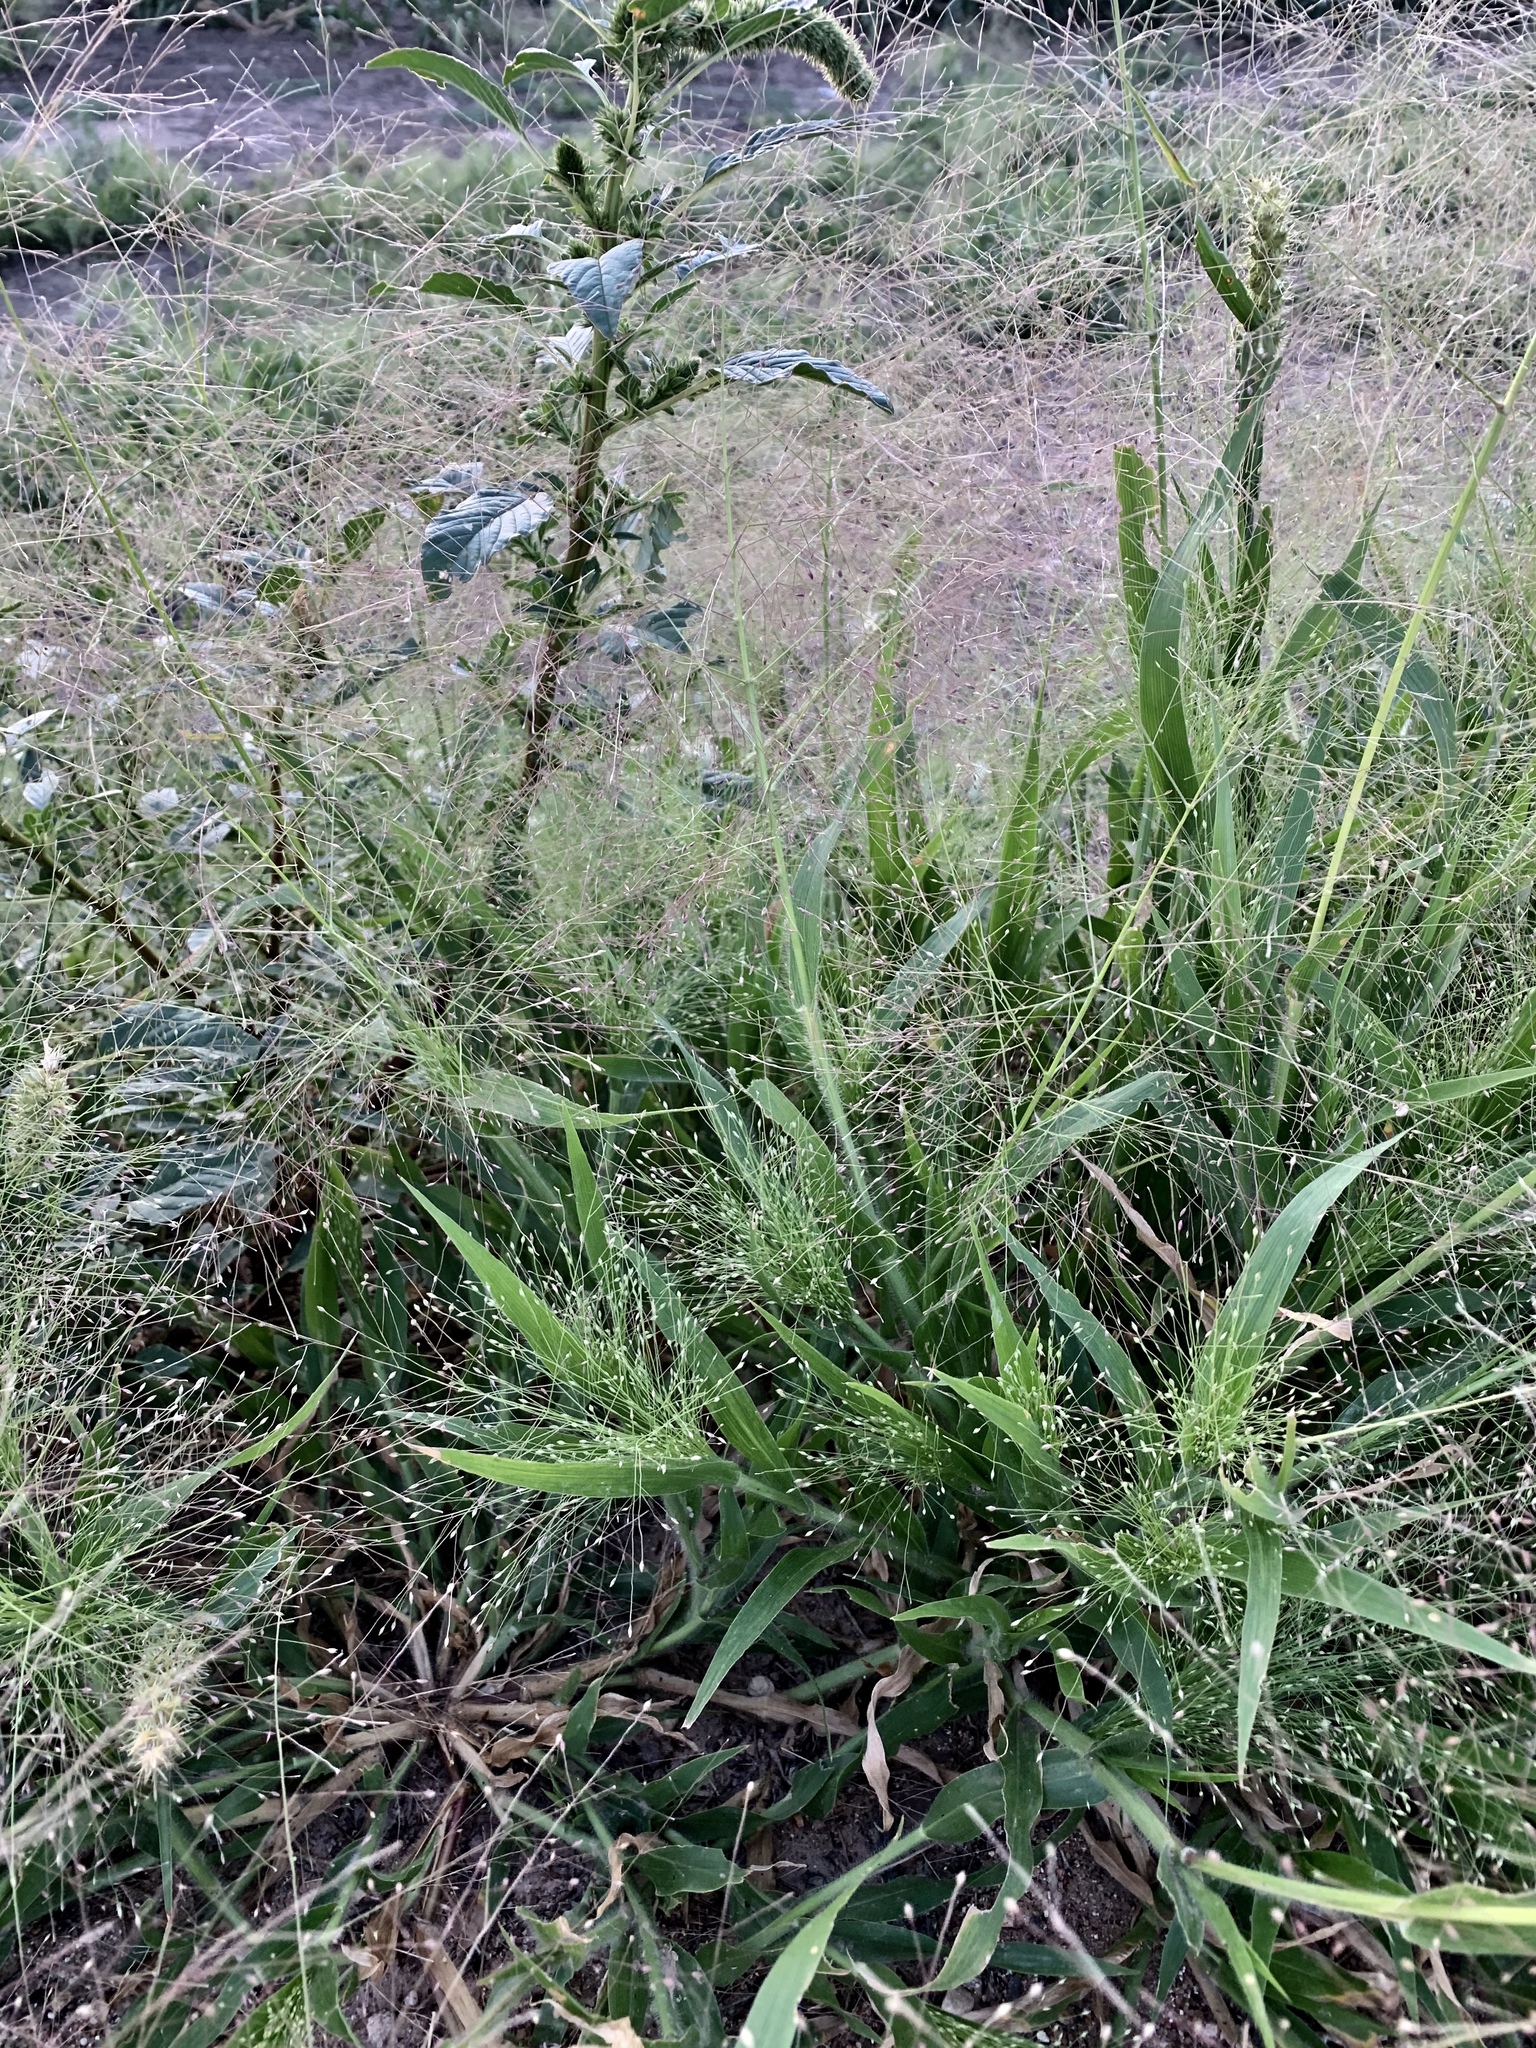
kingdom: Plantae
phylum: Tracheophyta
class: Liliopsida
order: Poales
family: Poaceae
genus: Panicum
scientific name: Panicum capillare
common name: Witch-grass
